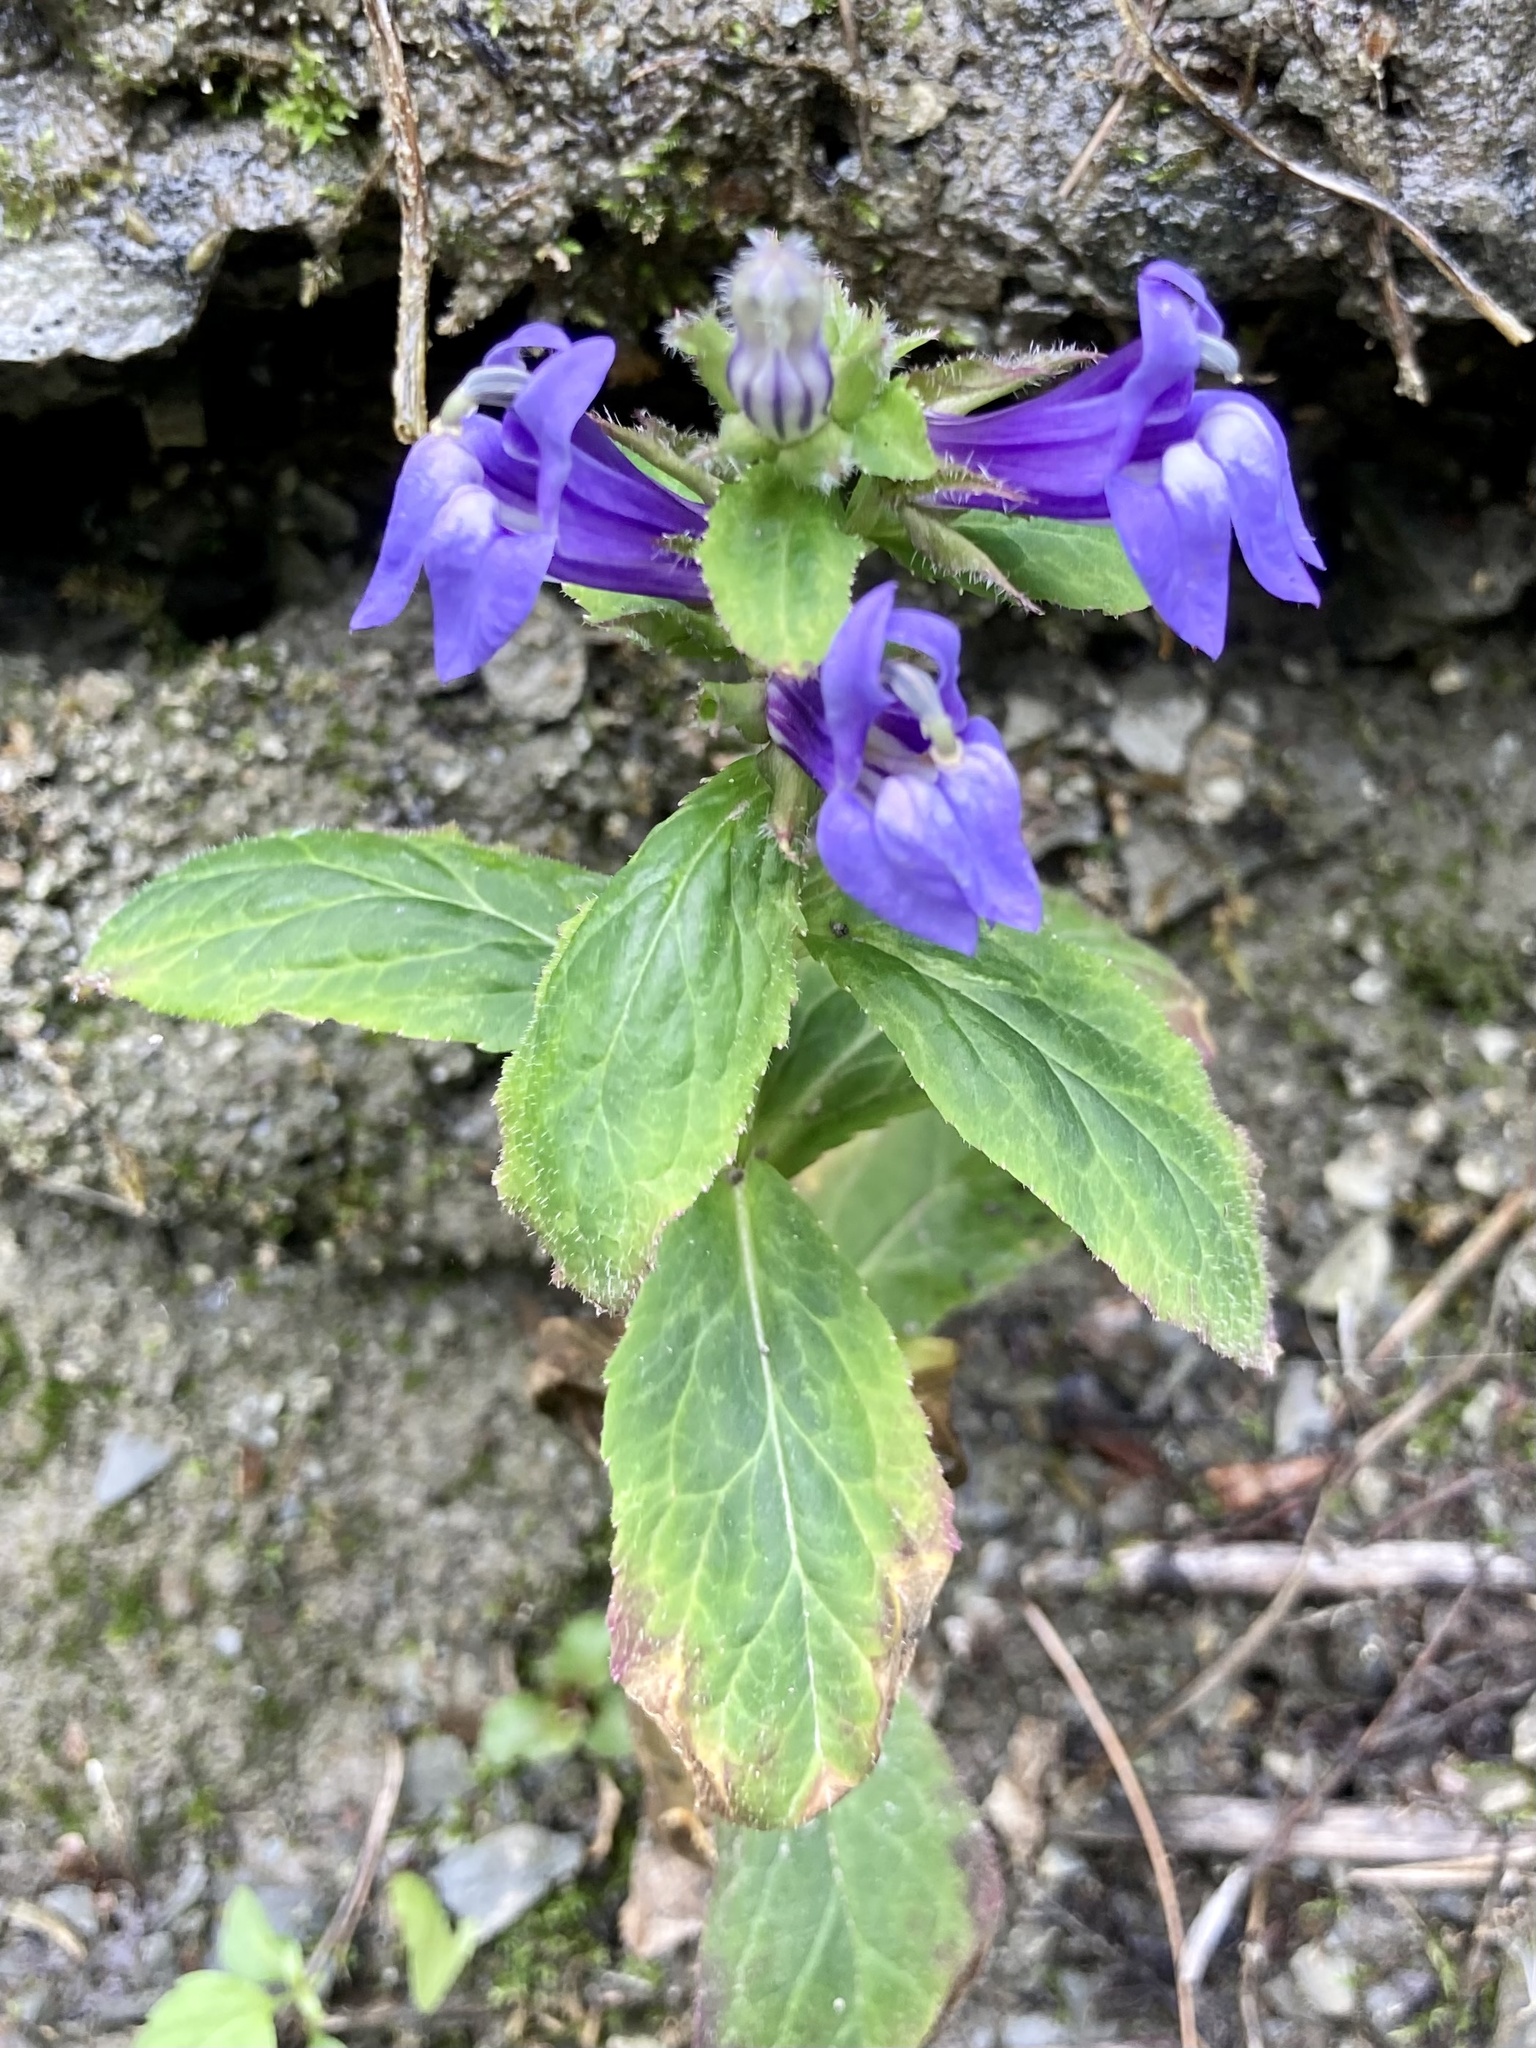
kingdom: Plantae
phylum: Tracheophyta
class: Magnoliopsida
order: Asterales
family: Campanulaceae
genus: Lobelia
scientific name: Lobelia siphilitica
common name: Great lobelia
